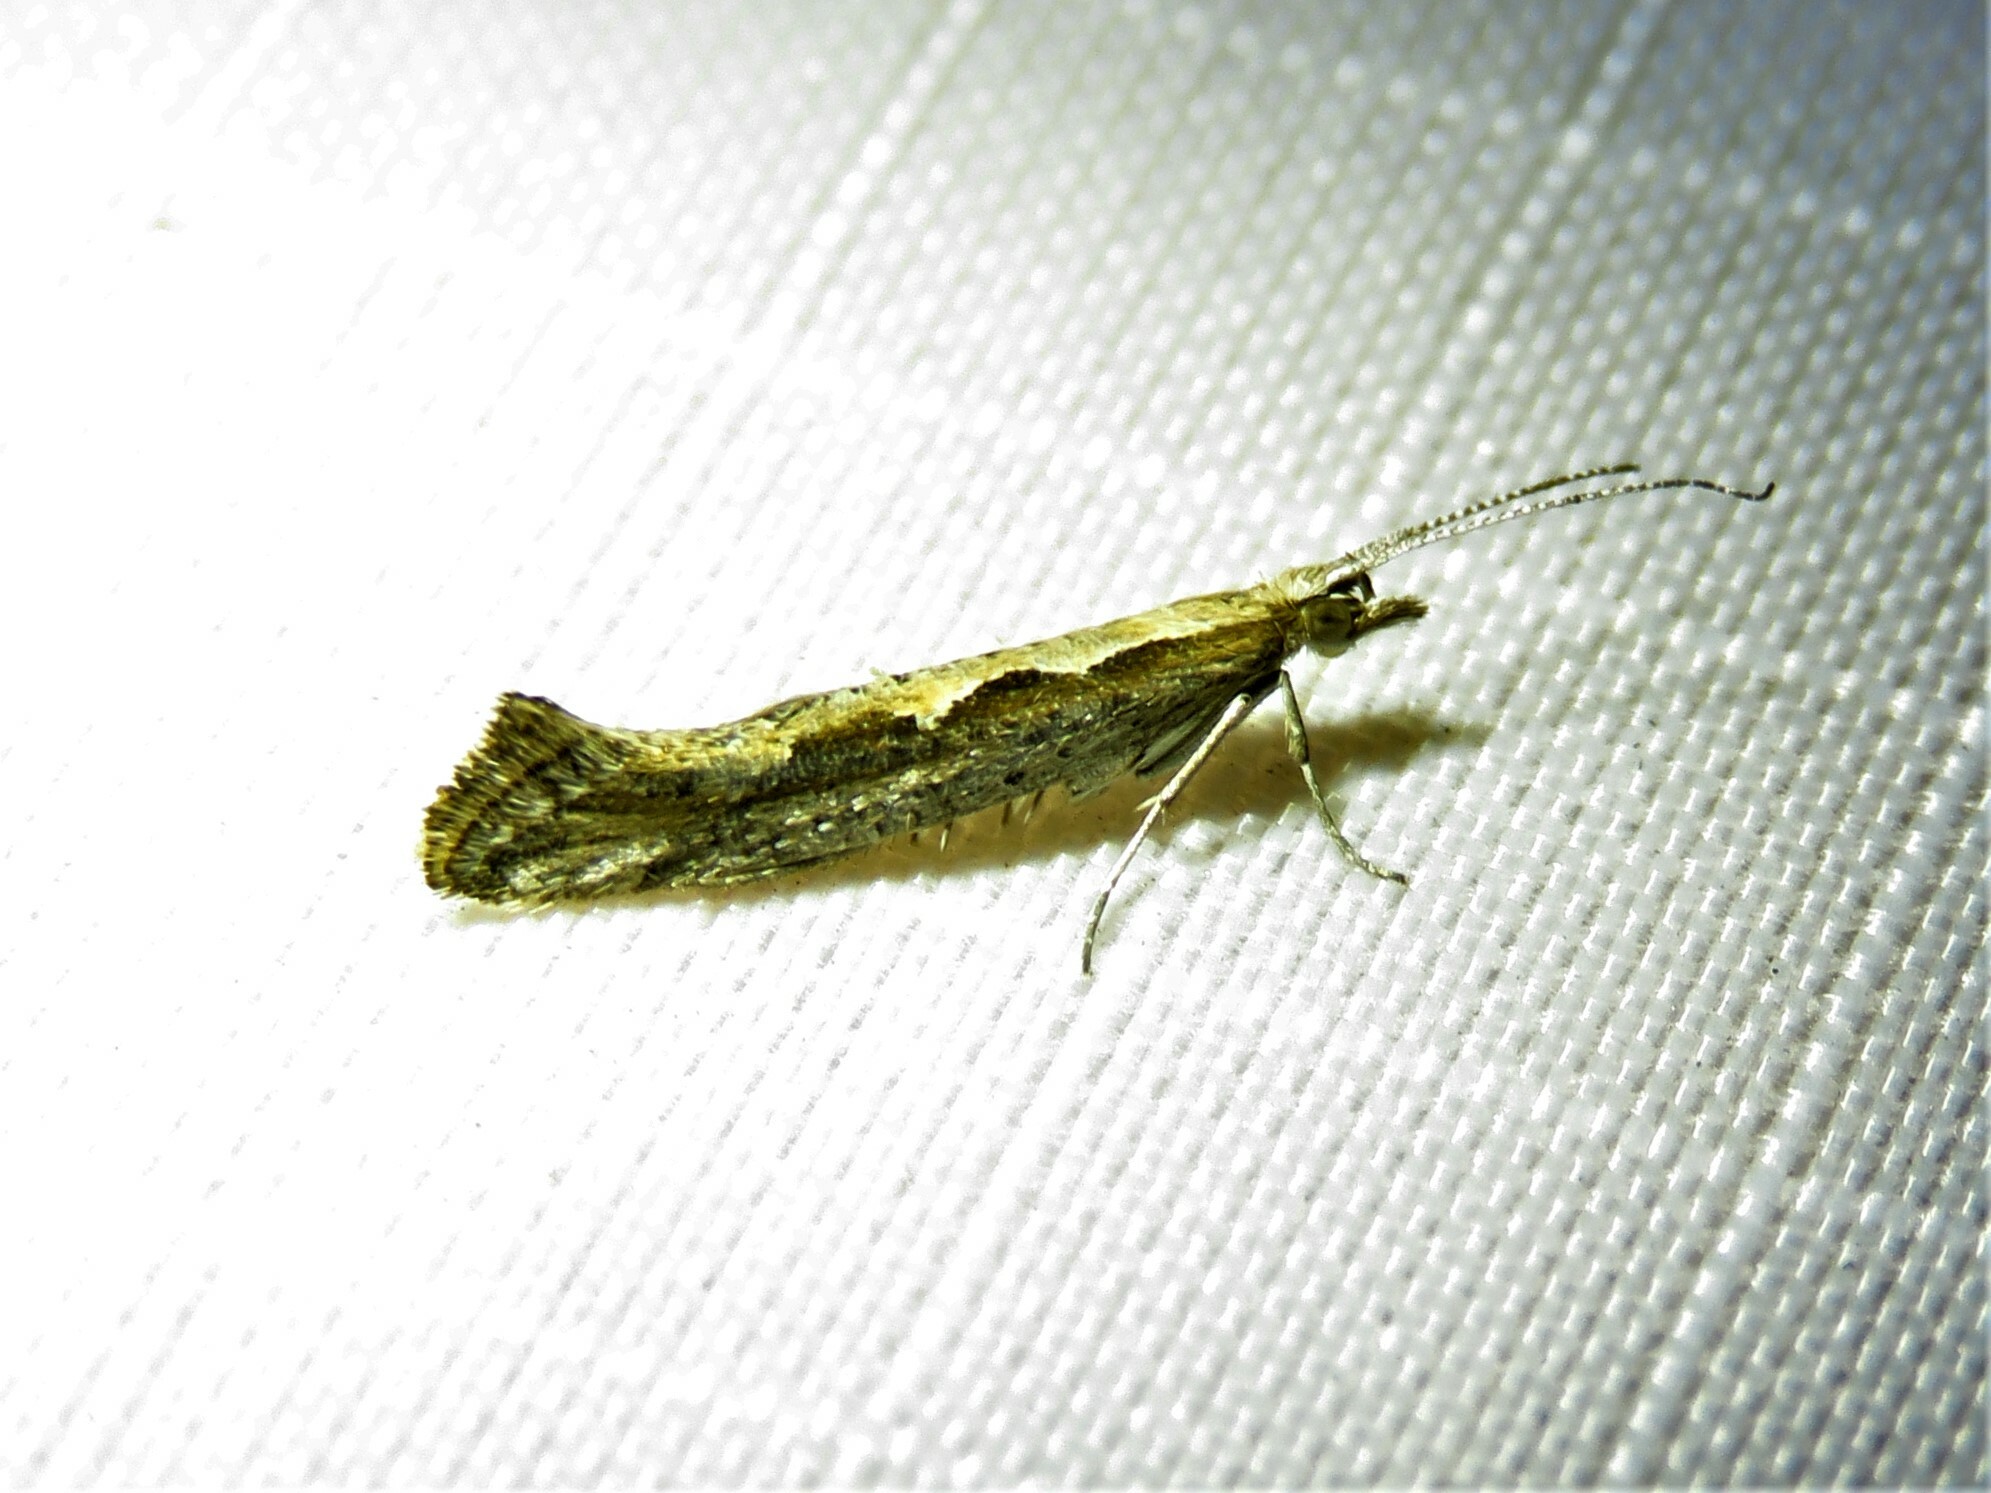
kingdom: Animalia
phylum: Arthropoda
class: Insecta
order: Lepidoptera
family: Plutellidae
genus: Plutella
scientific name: Plutella xylostella
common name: Diamond-back moth
